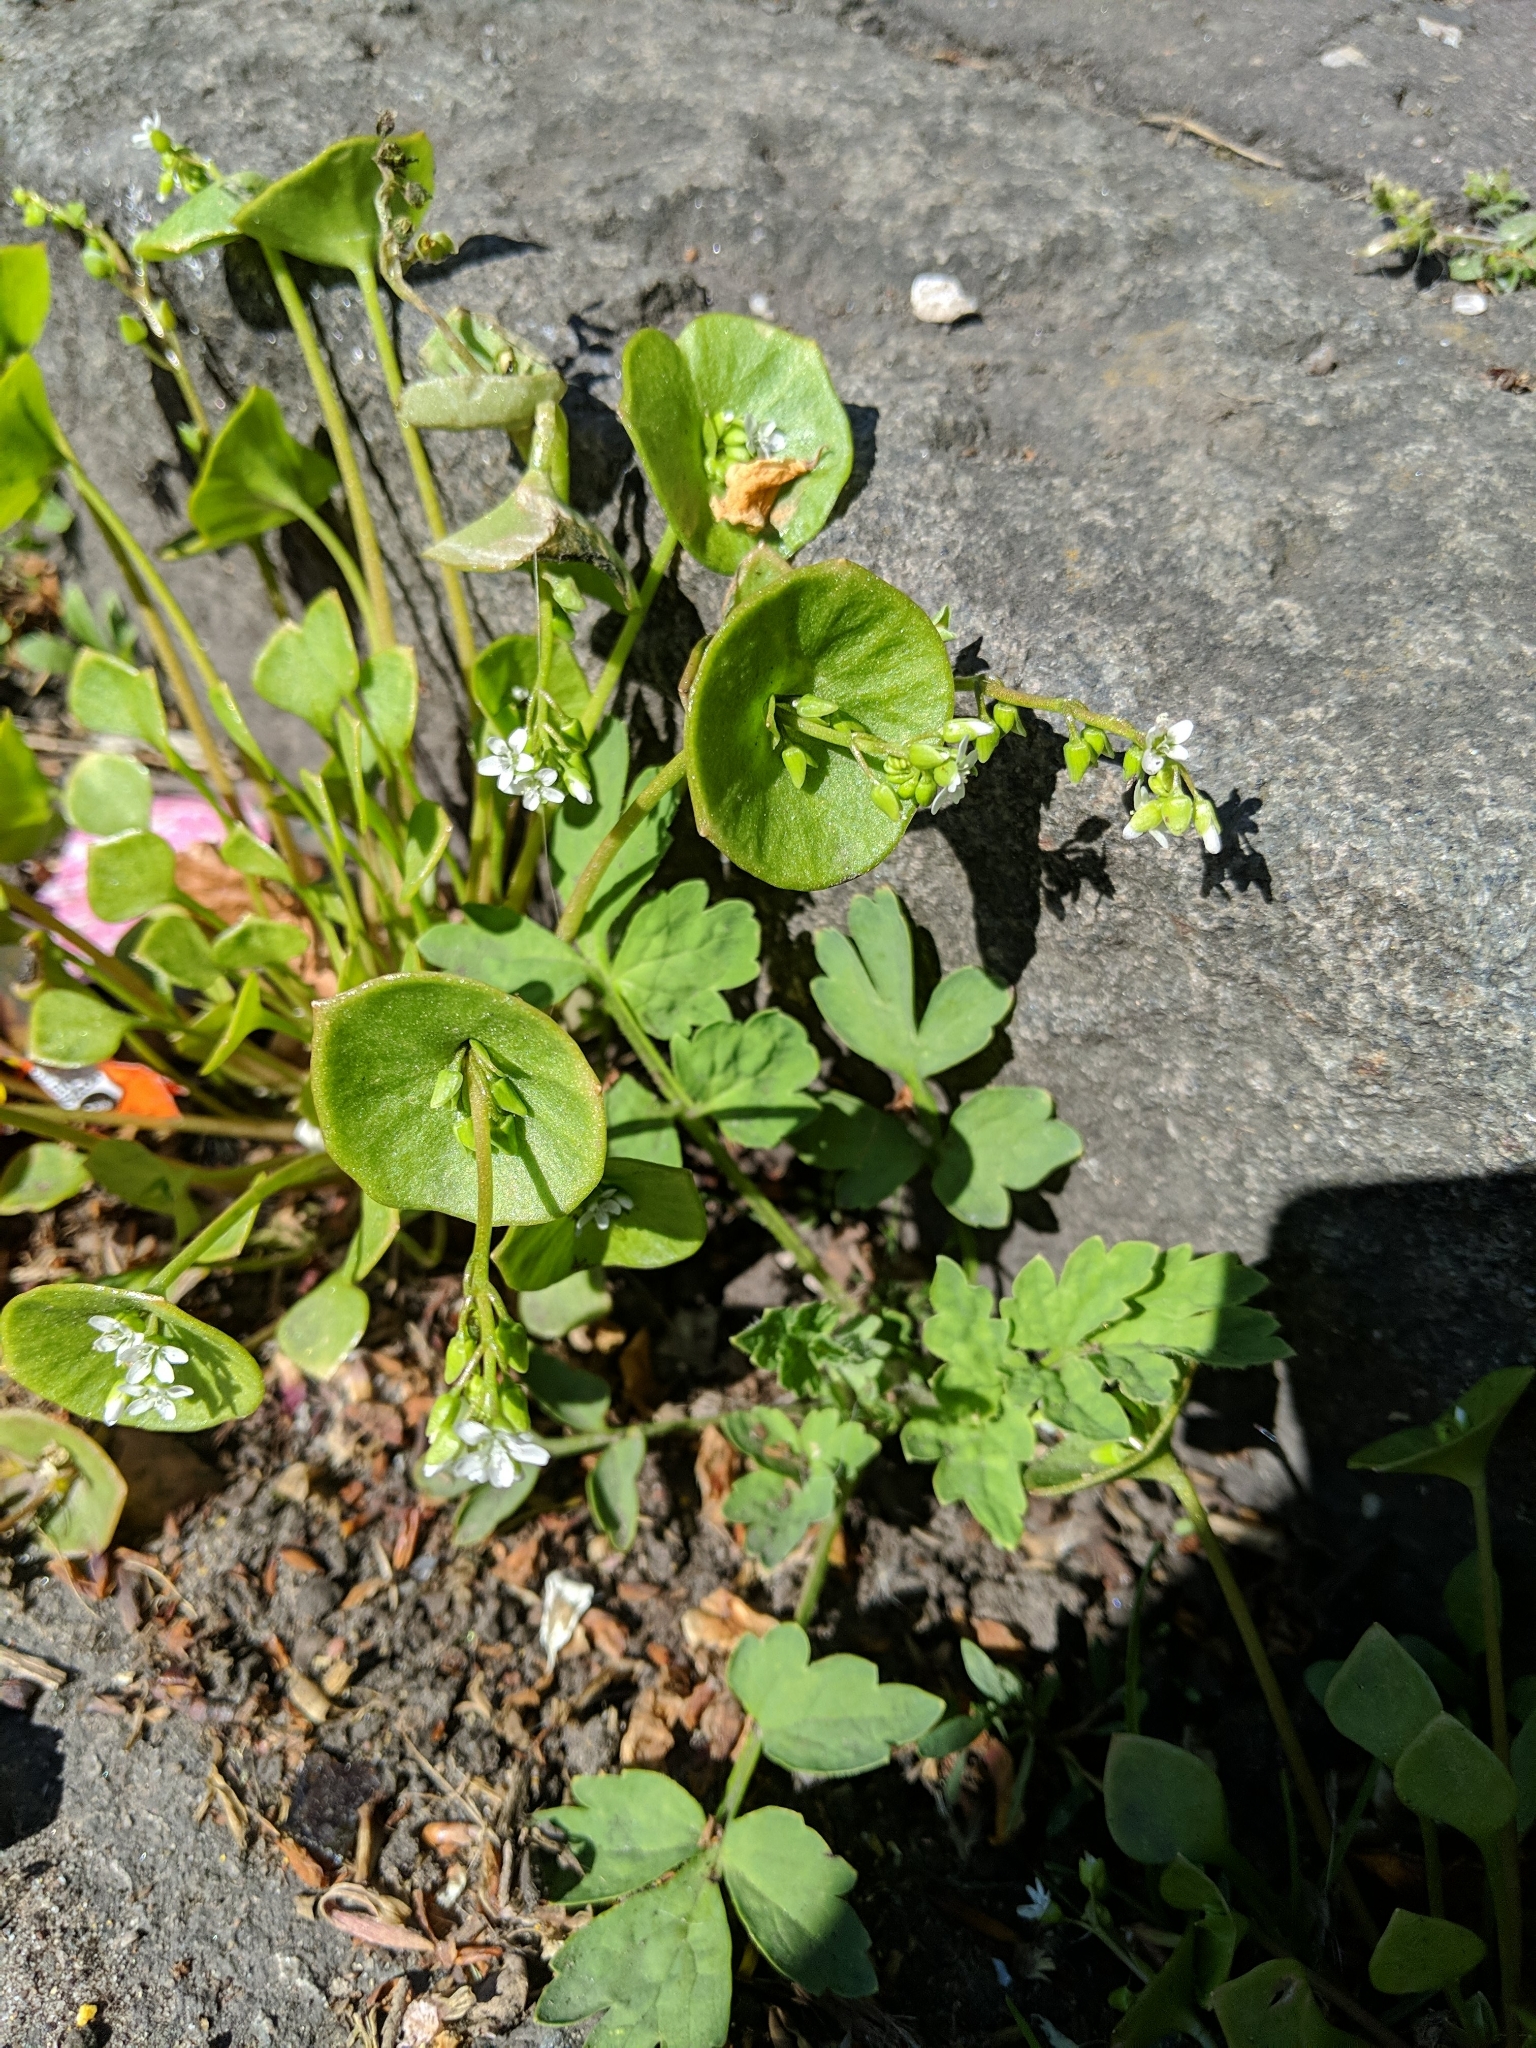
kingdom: Plantae
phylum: Tracheophyta
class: Magnoliopsida
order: Caryophyllales
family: Montiaceae
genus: Claytonia
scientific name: Claytonia perfoliata
